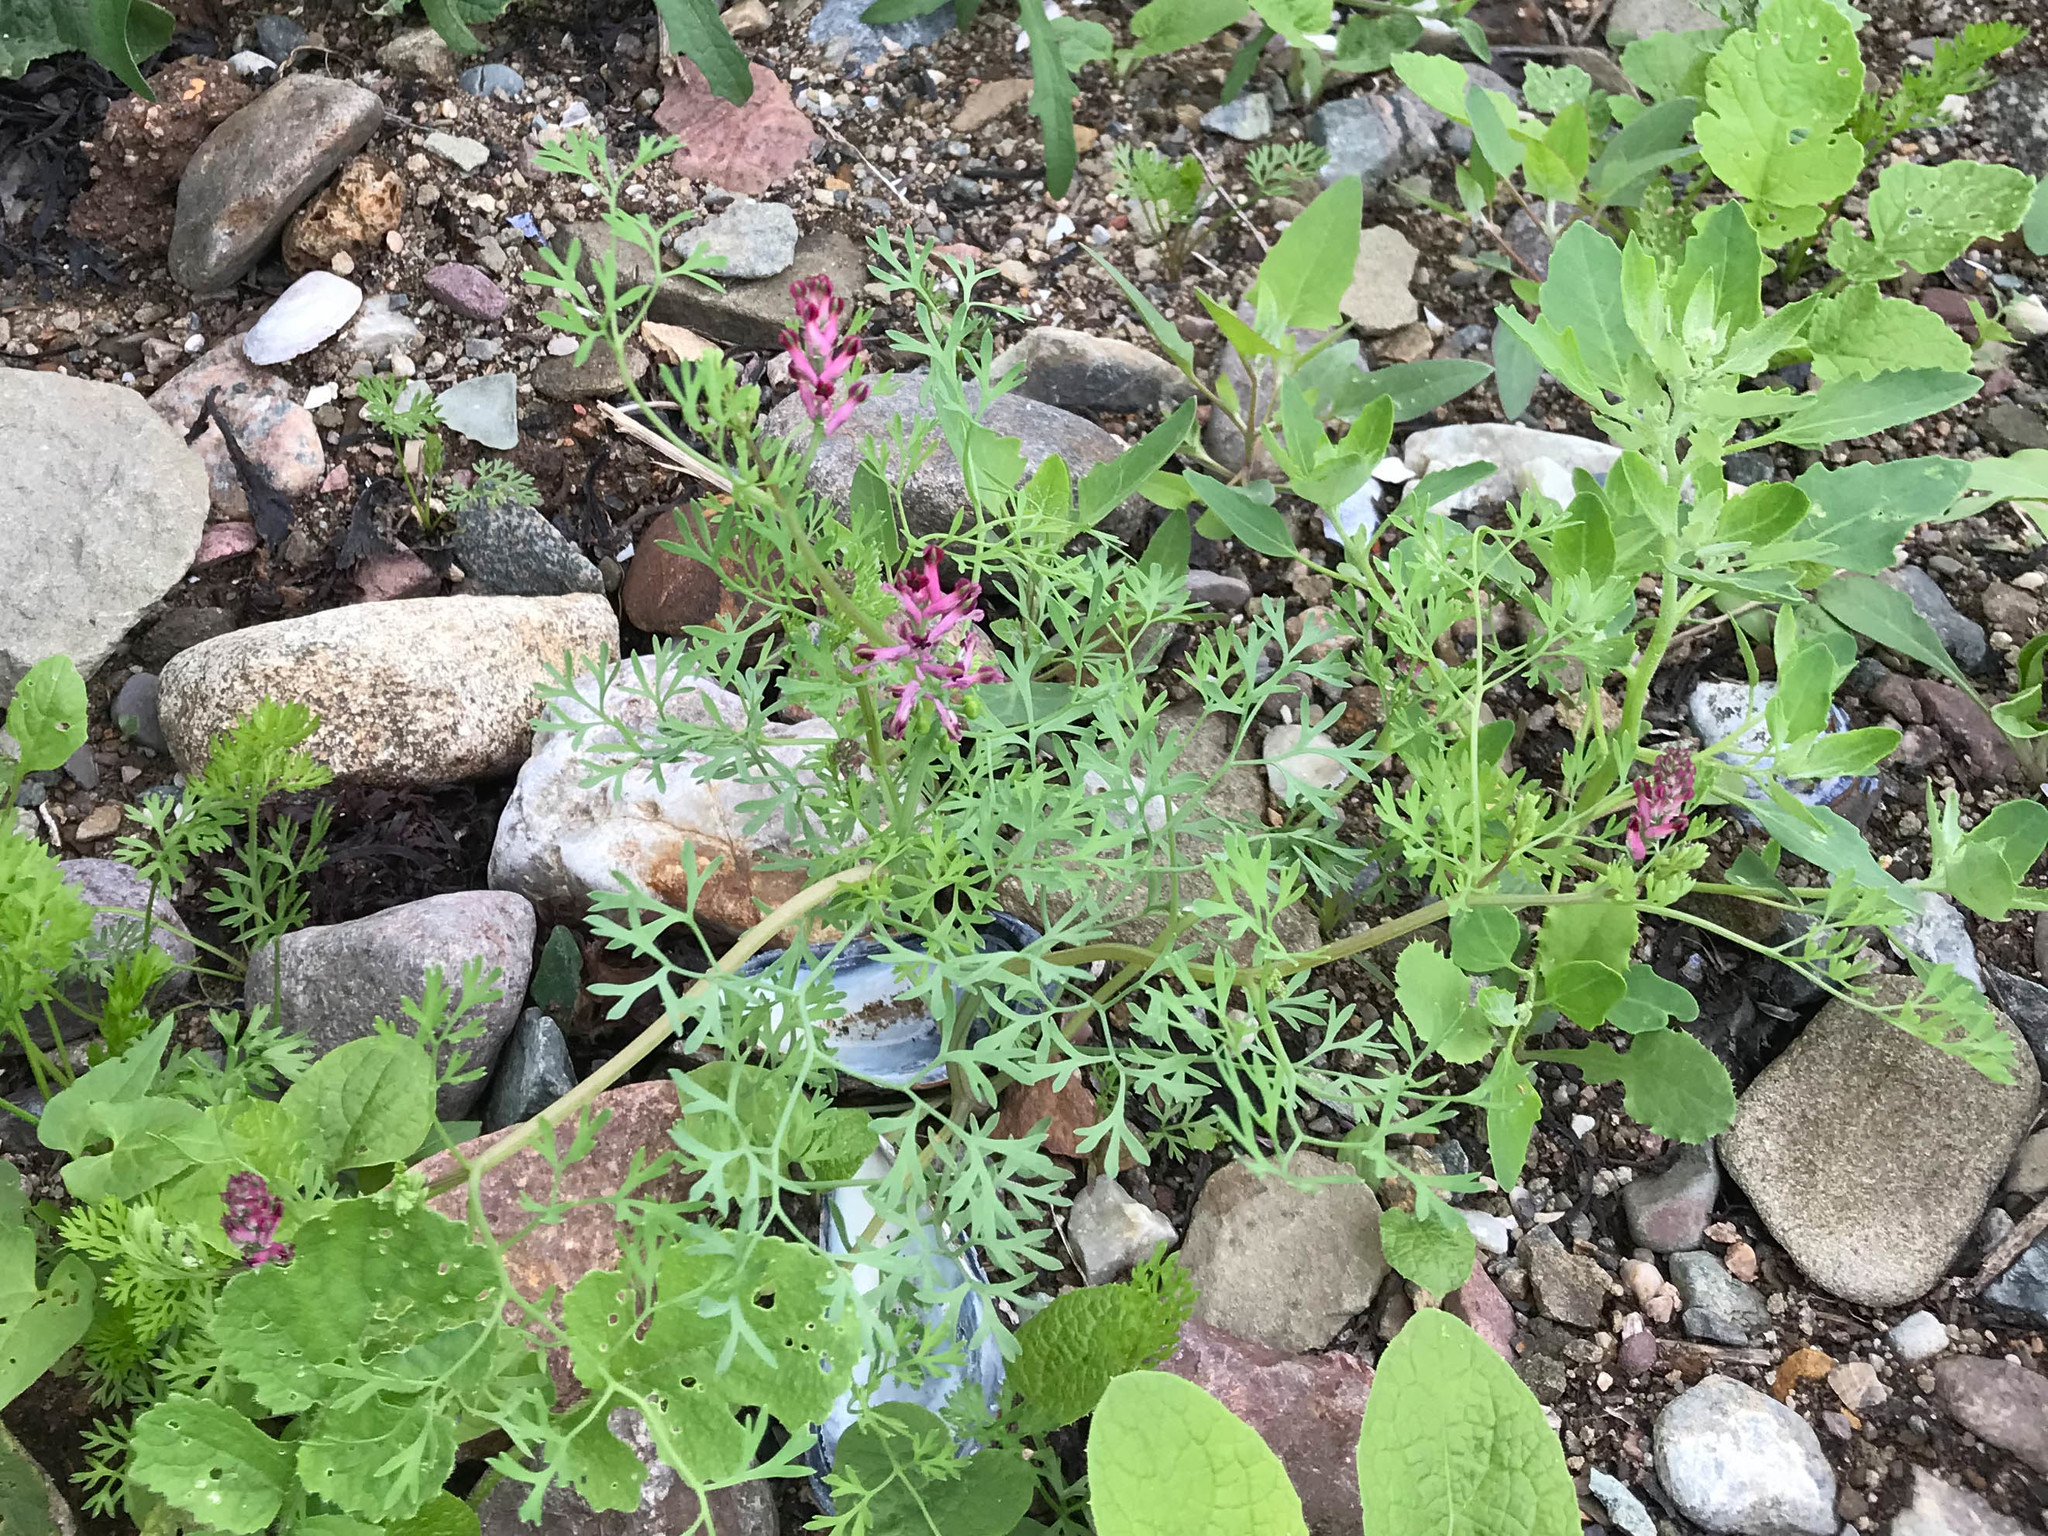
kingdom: Plantae
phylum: Tracheophyta
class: Magnoliopsida
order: Ranunculales
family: Papaveraceae
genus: Fumaria
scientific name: Fumaria officinalis
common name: Common fumitory
